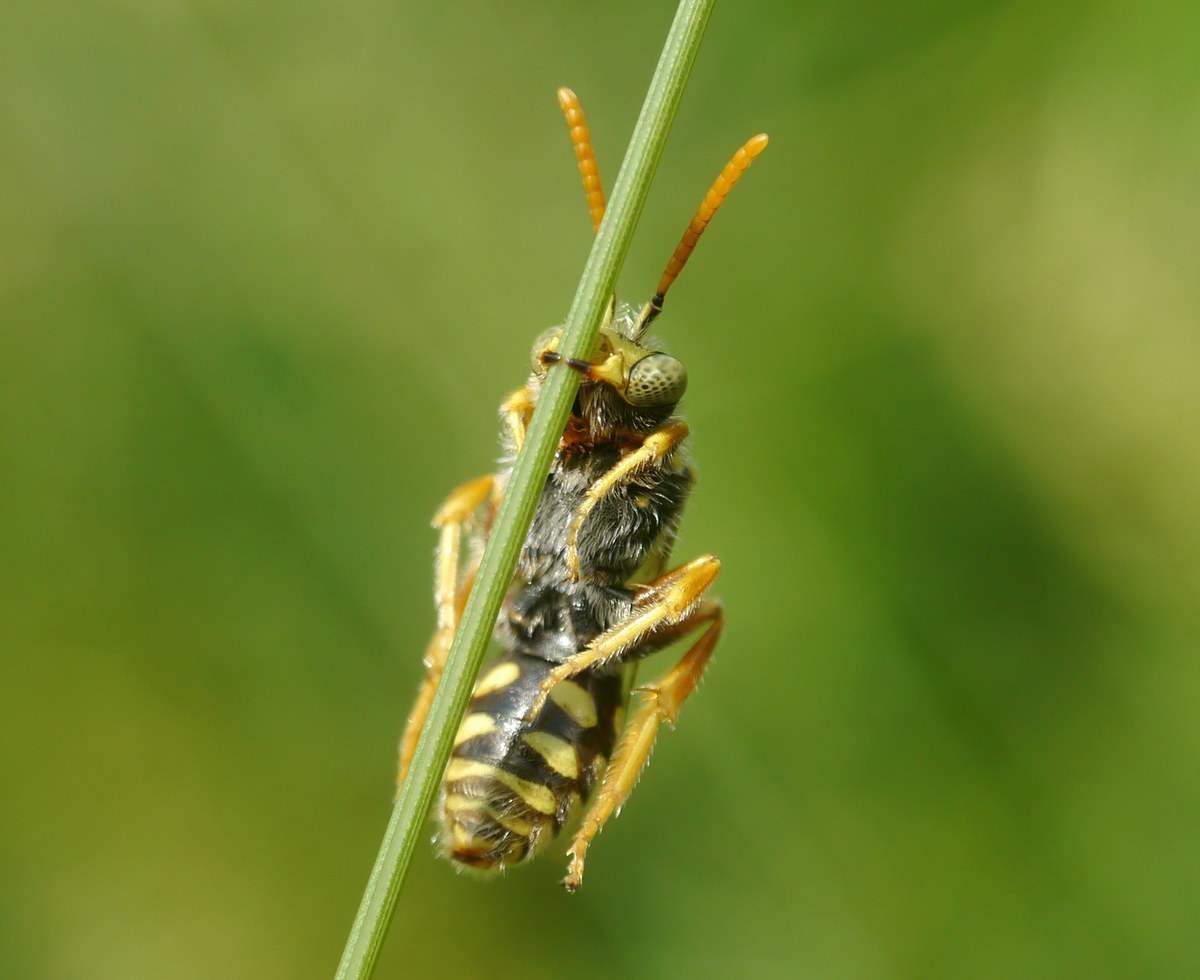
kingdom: Animalia
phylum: Arthropoda
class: Insecta
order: Hymenoptera
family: Apidae
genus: Nomada
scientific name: Nomada nobilis
